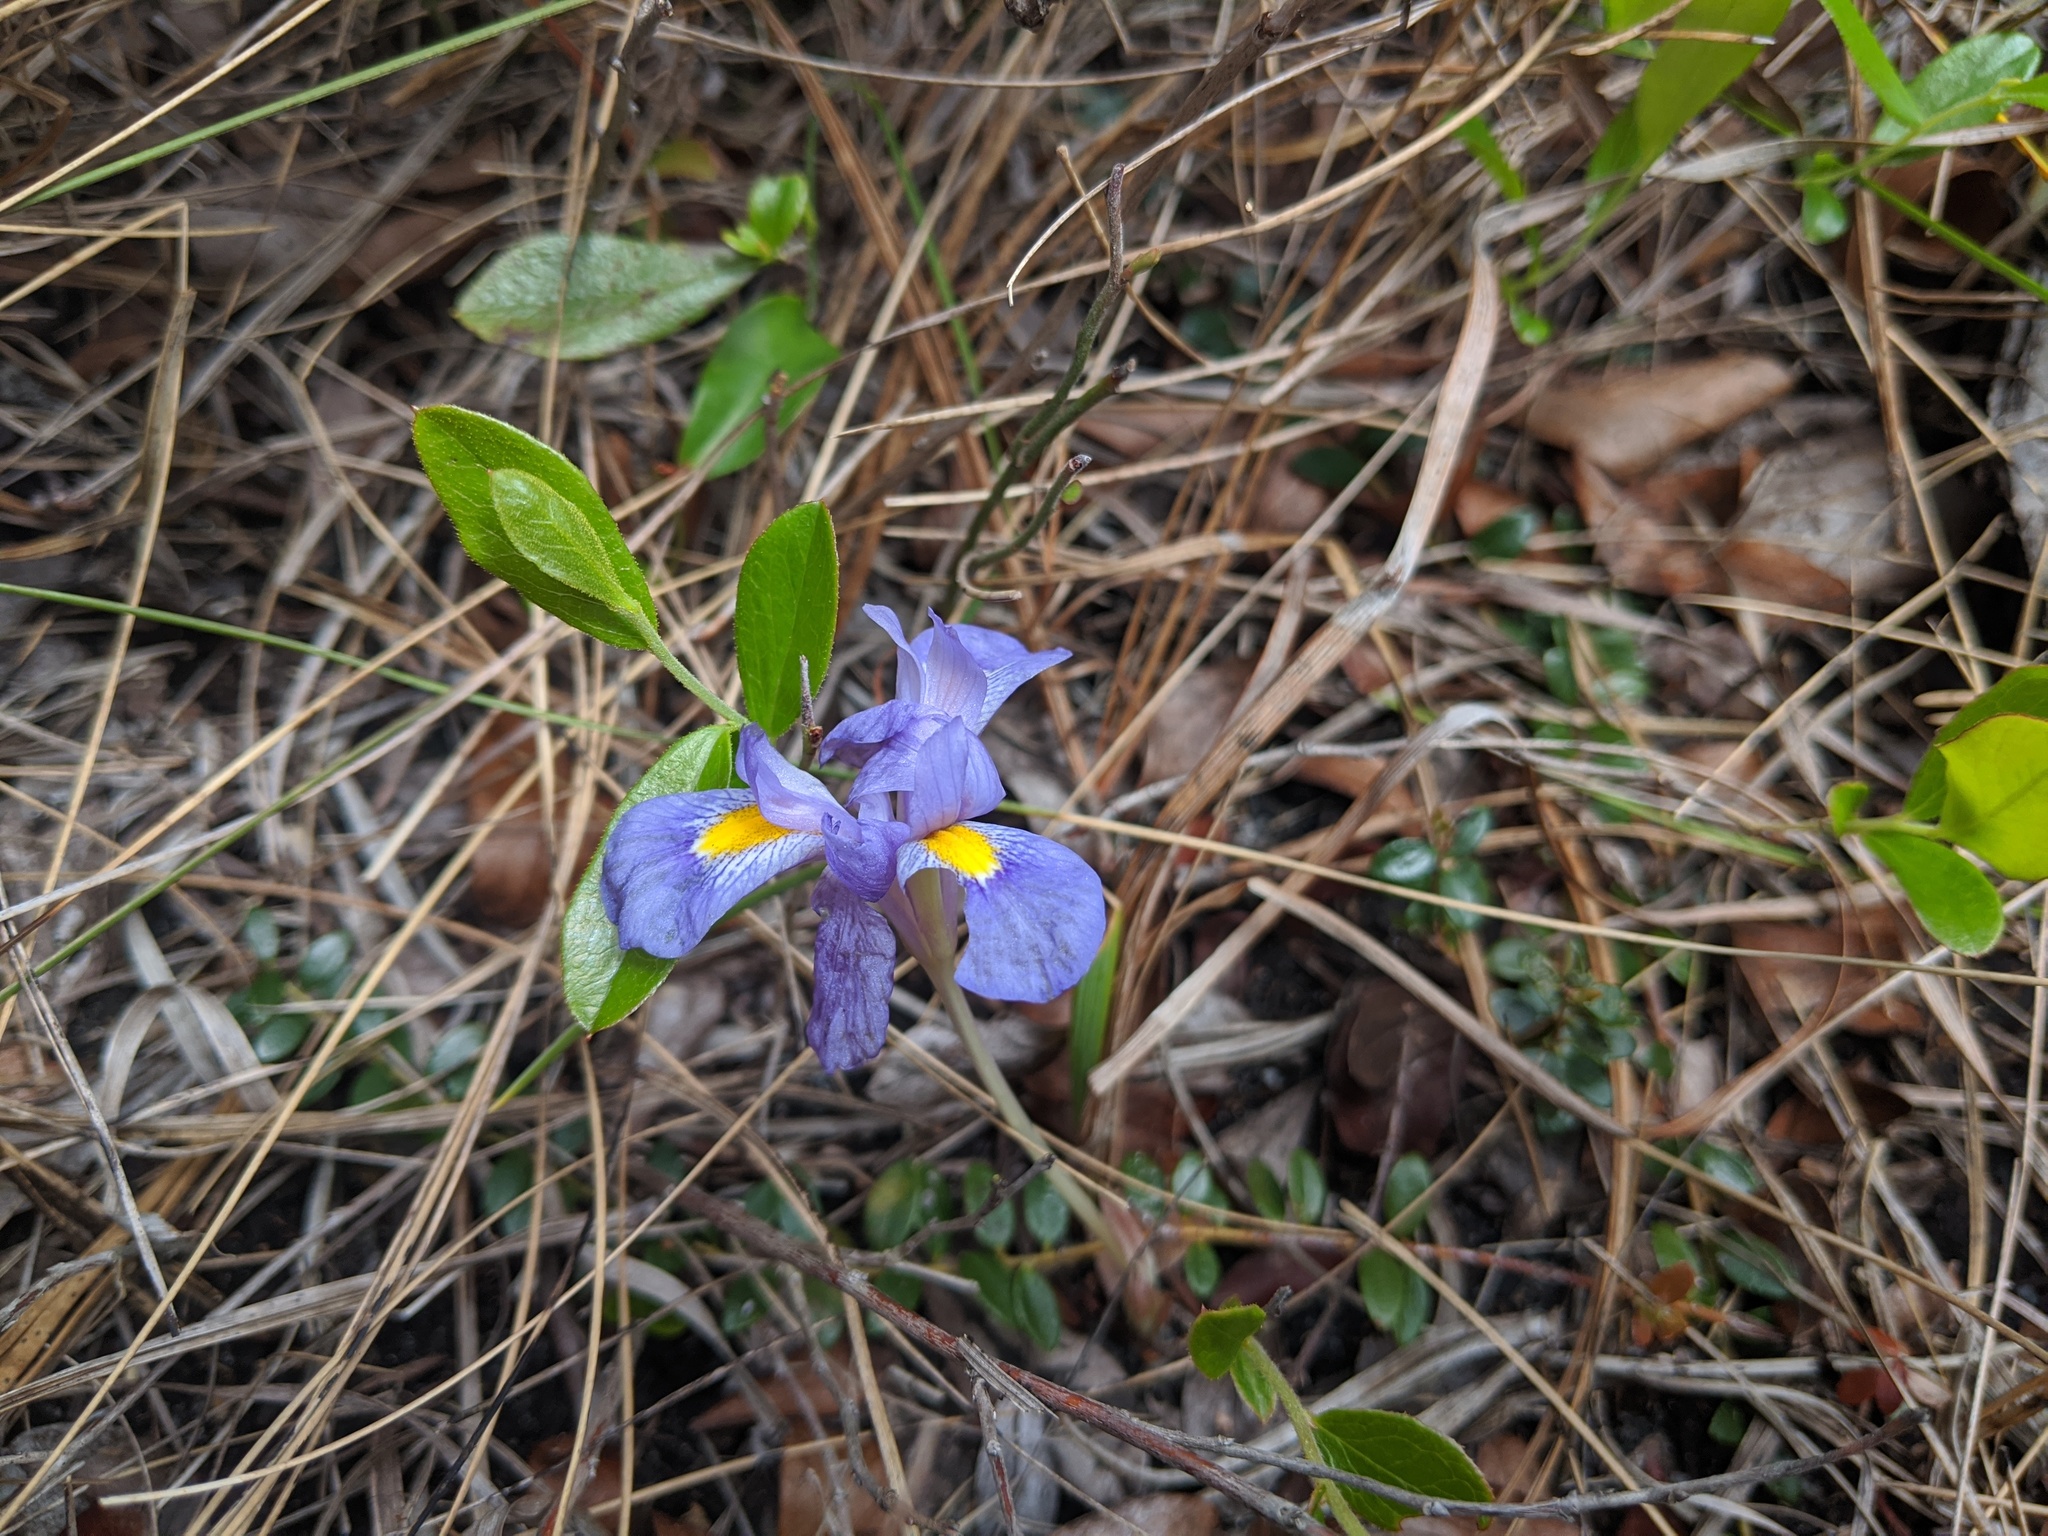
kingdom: Plantae
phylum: Tracheophyta
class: Liliopsida
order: Asparagales
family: Iridaceae
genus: Iris
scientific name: Iris verna
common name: Dwarf iris
